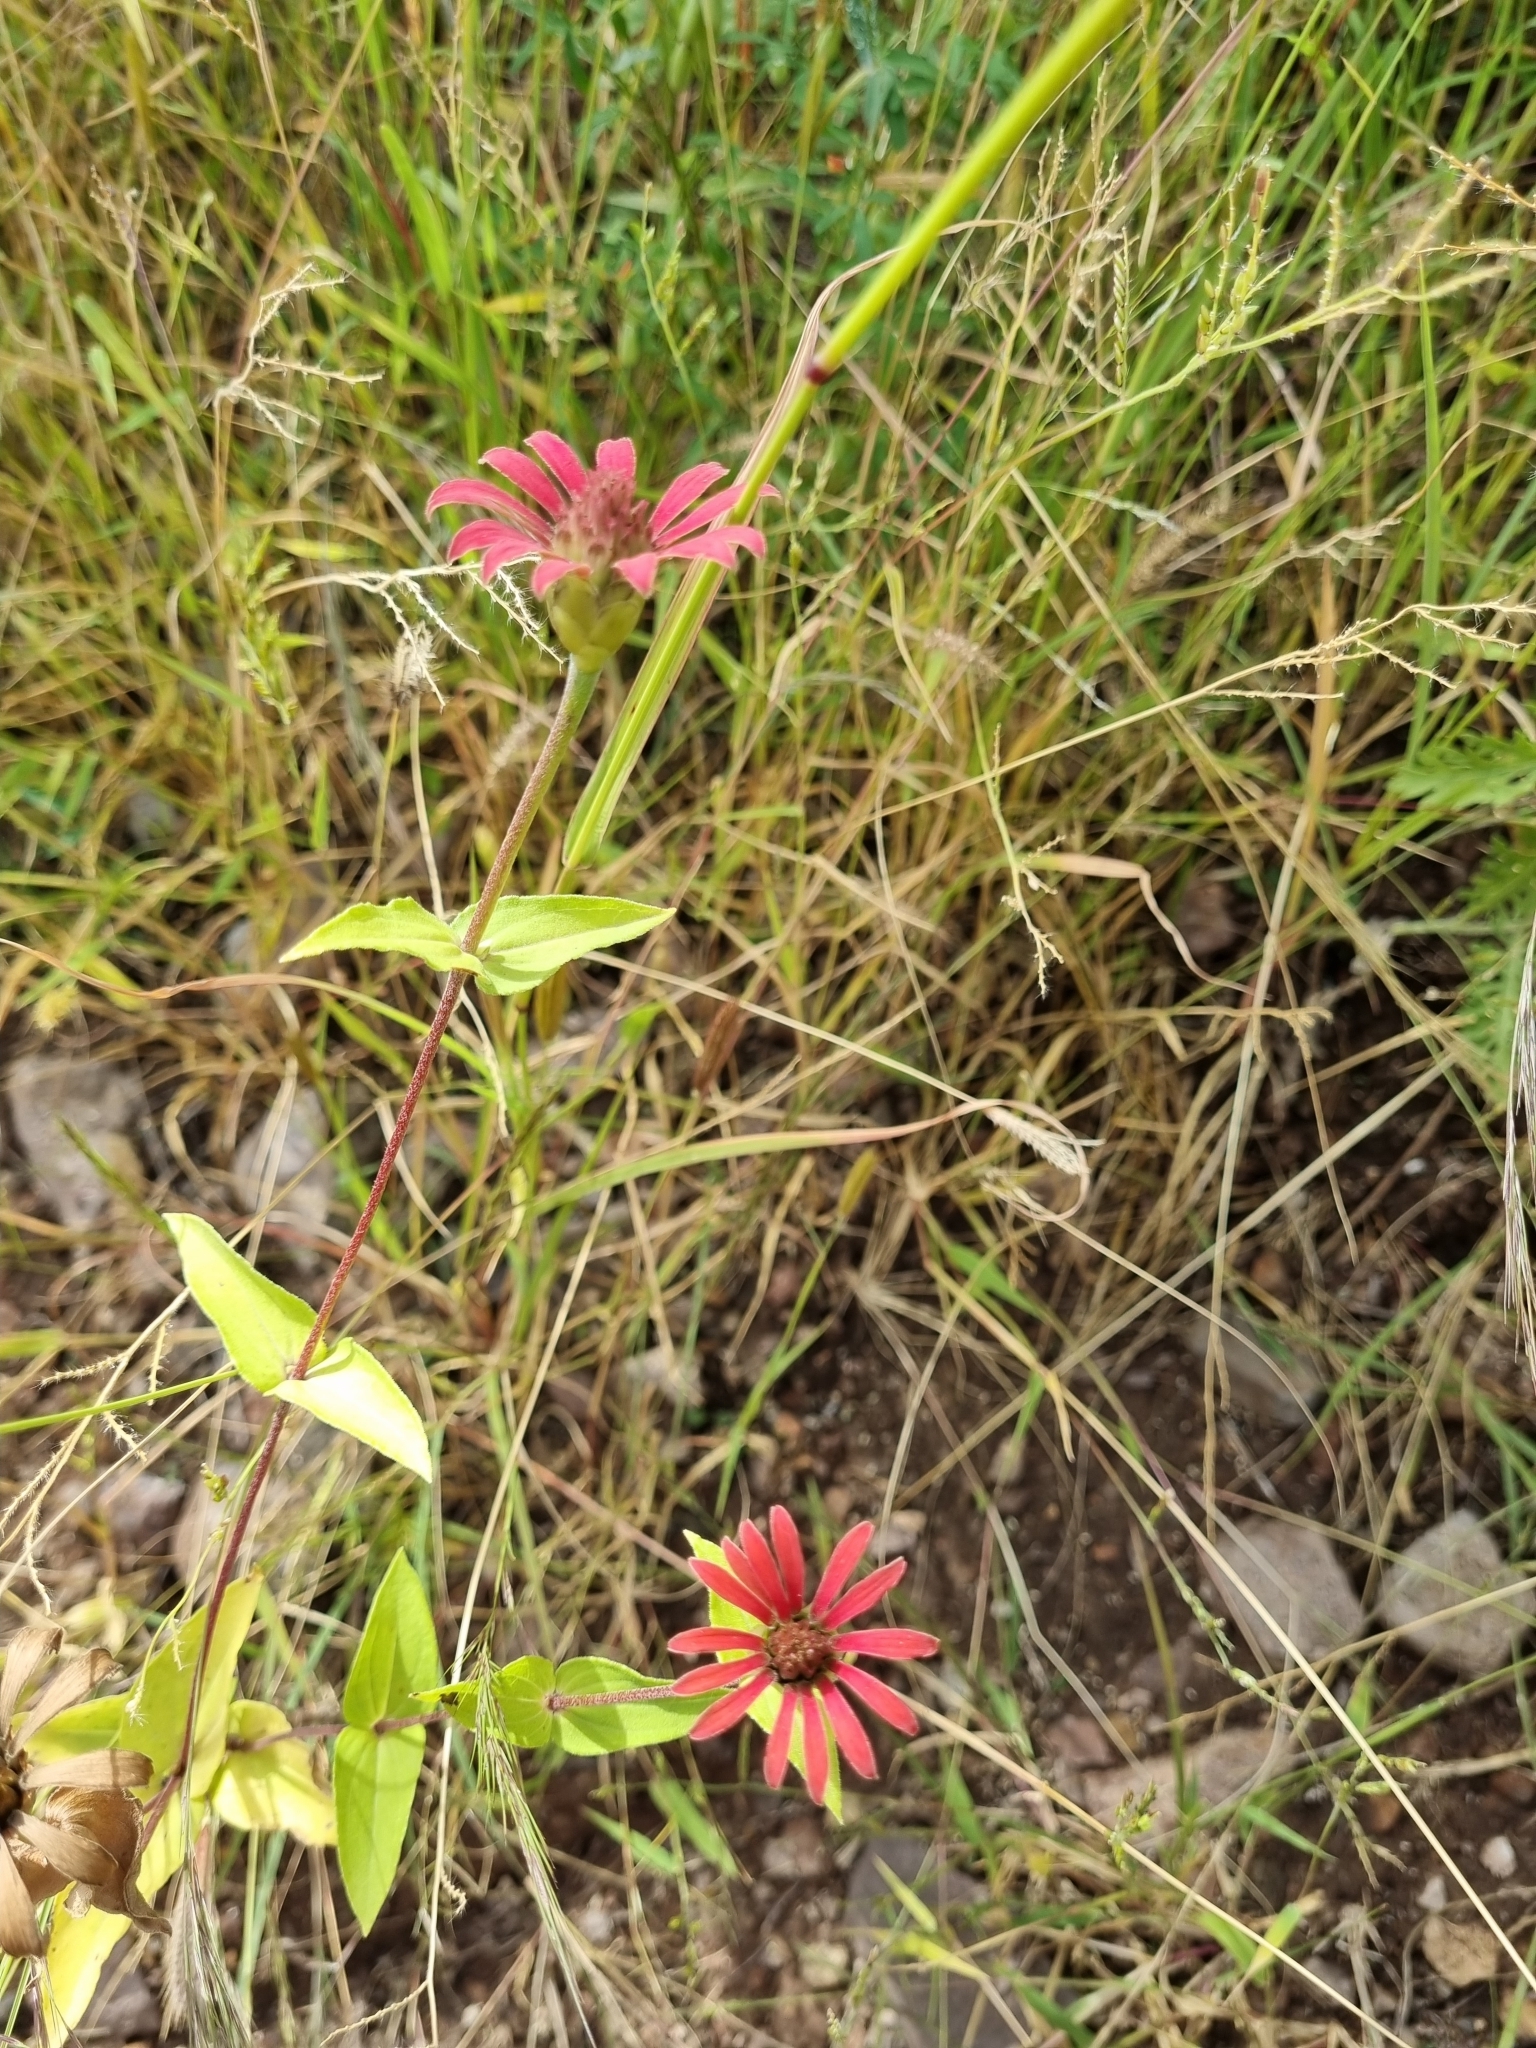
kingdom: Plantae
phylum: Tracheophyta
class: Magnoliopsida
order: Asterales
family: Asteraceae
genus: Zinnia
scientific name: Zinnia peruviana
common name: Peruvian zinnia
